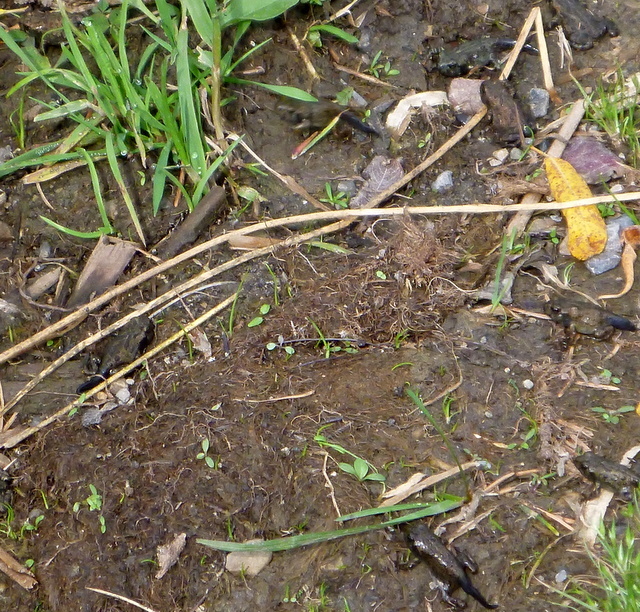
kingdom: Animalia
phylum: Chordata
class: Amphibia
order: Anura
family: Bufonidae
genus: Anaxyrus
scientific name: Anaxyrus boreas
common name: Western toad
